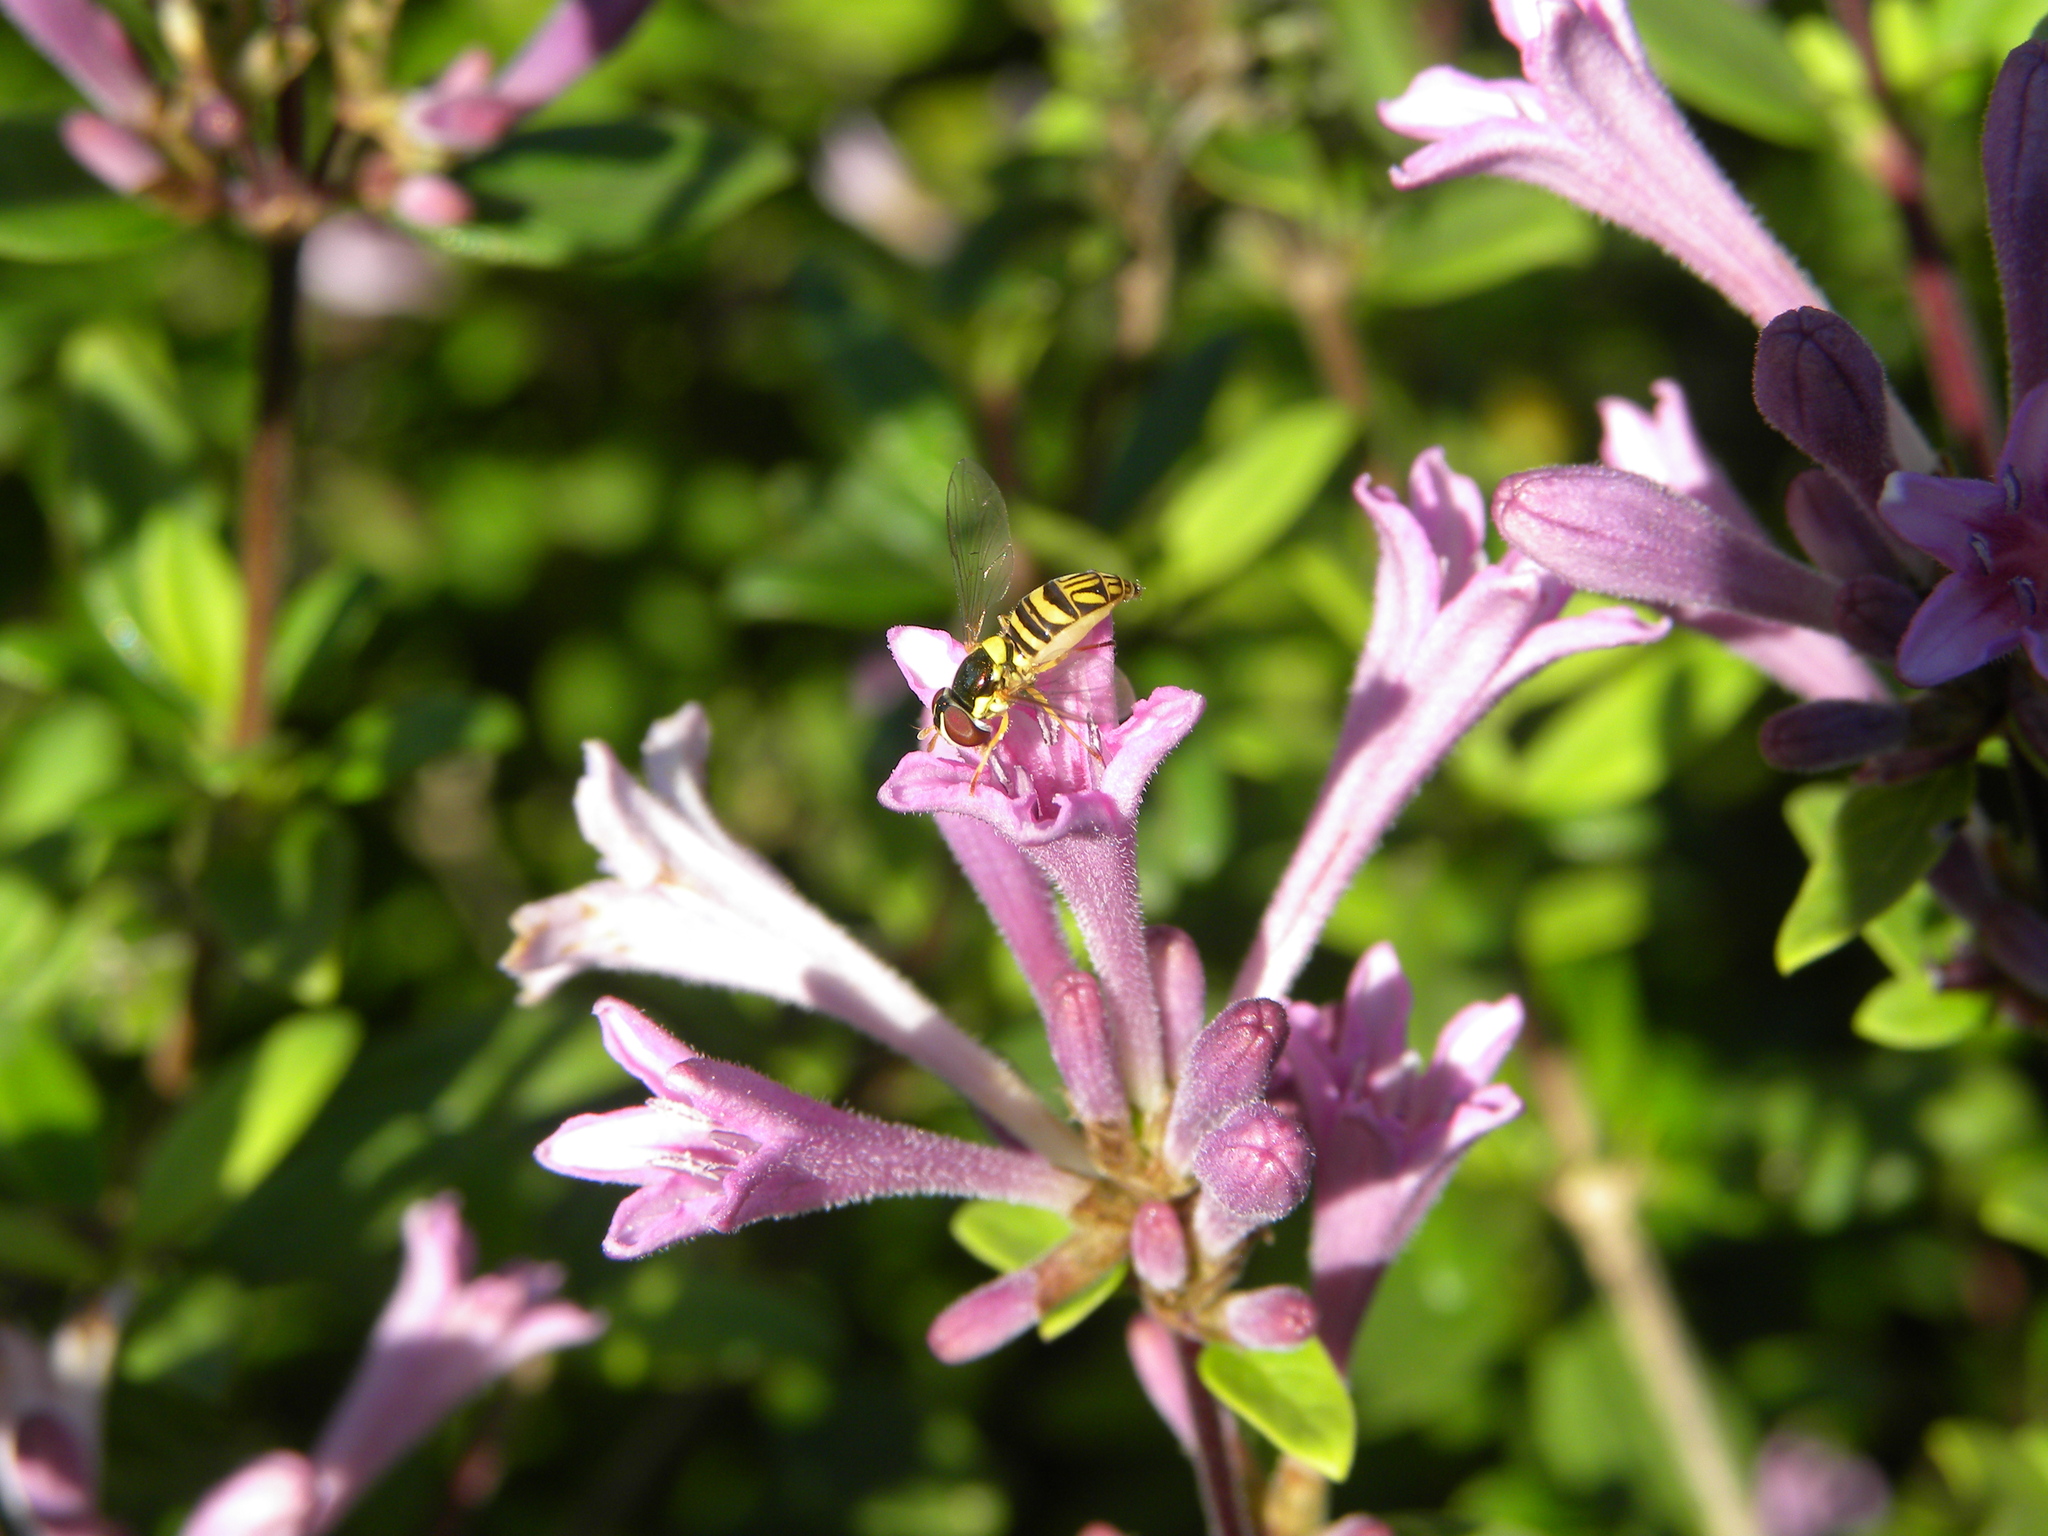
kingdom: Animalia
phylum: Arthropoda
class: Insecta
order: Diptera
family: Syrphidae
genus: Allograpta
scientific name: Allograpta obliqua
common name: Common oblique syrphid
